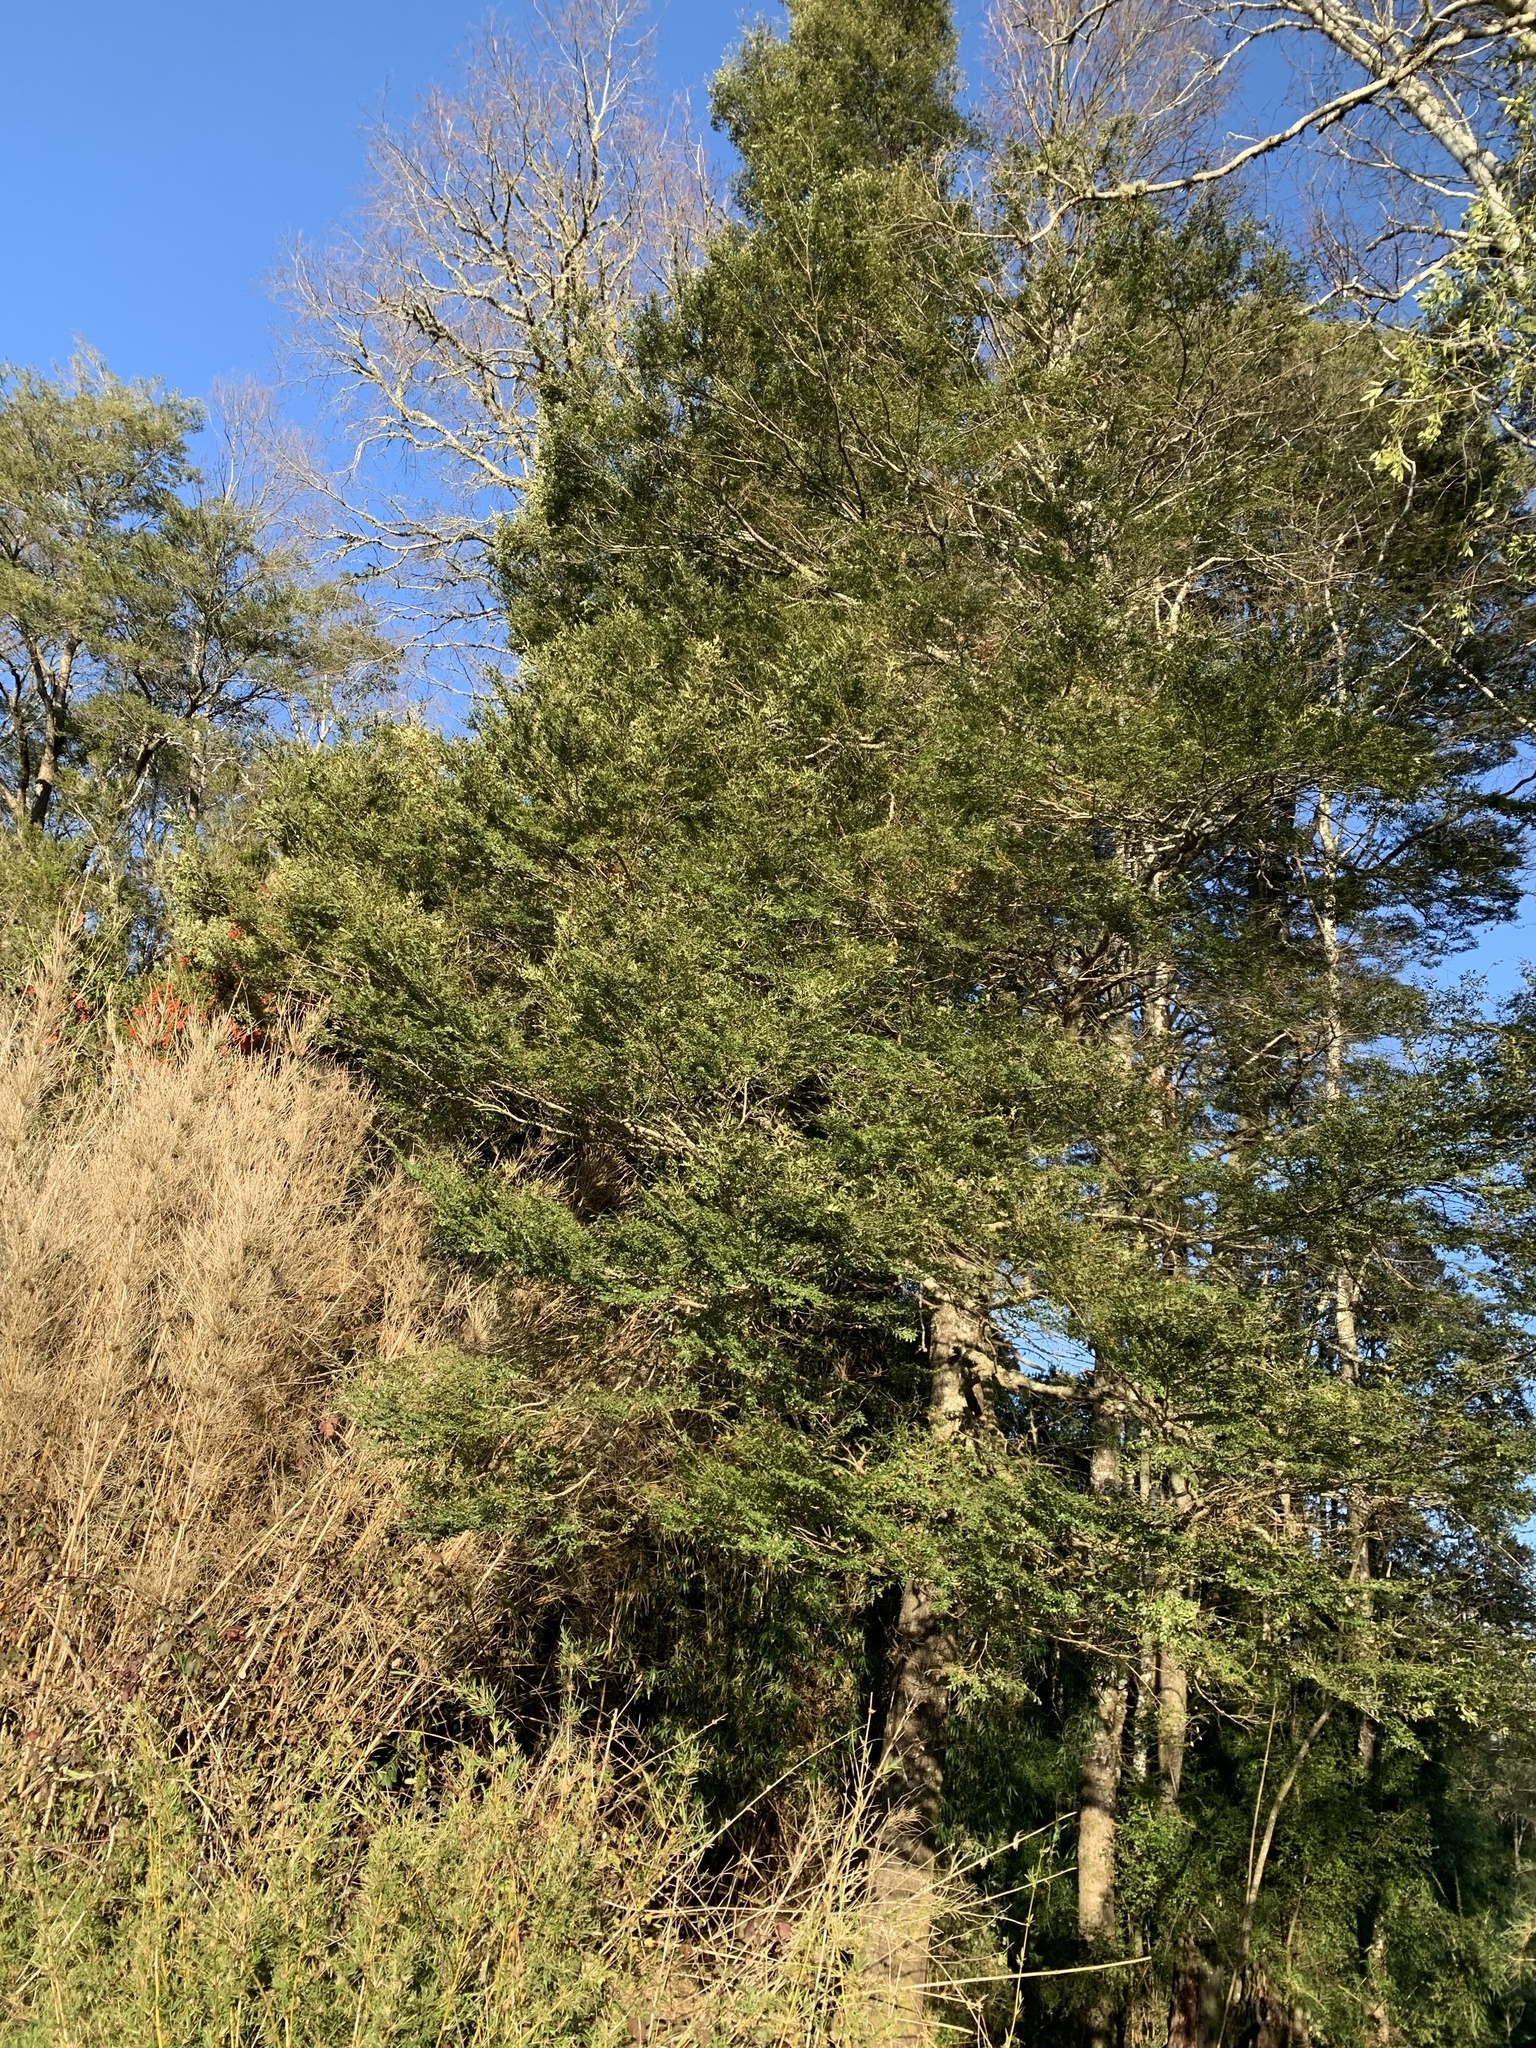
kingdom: Plantae
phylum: Tracheophyta
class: Magnoliopsida
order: Fagales
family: Nothofagaceae
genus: Nothofagus
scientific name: Nothofagus dombeyi
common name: Coigue
